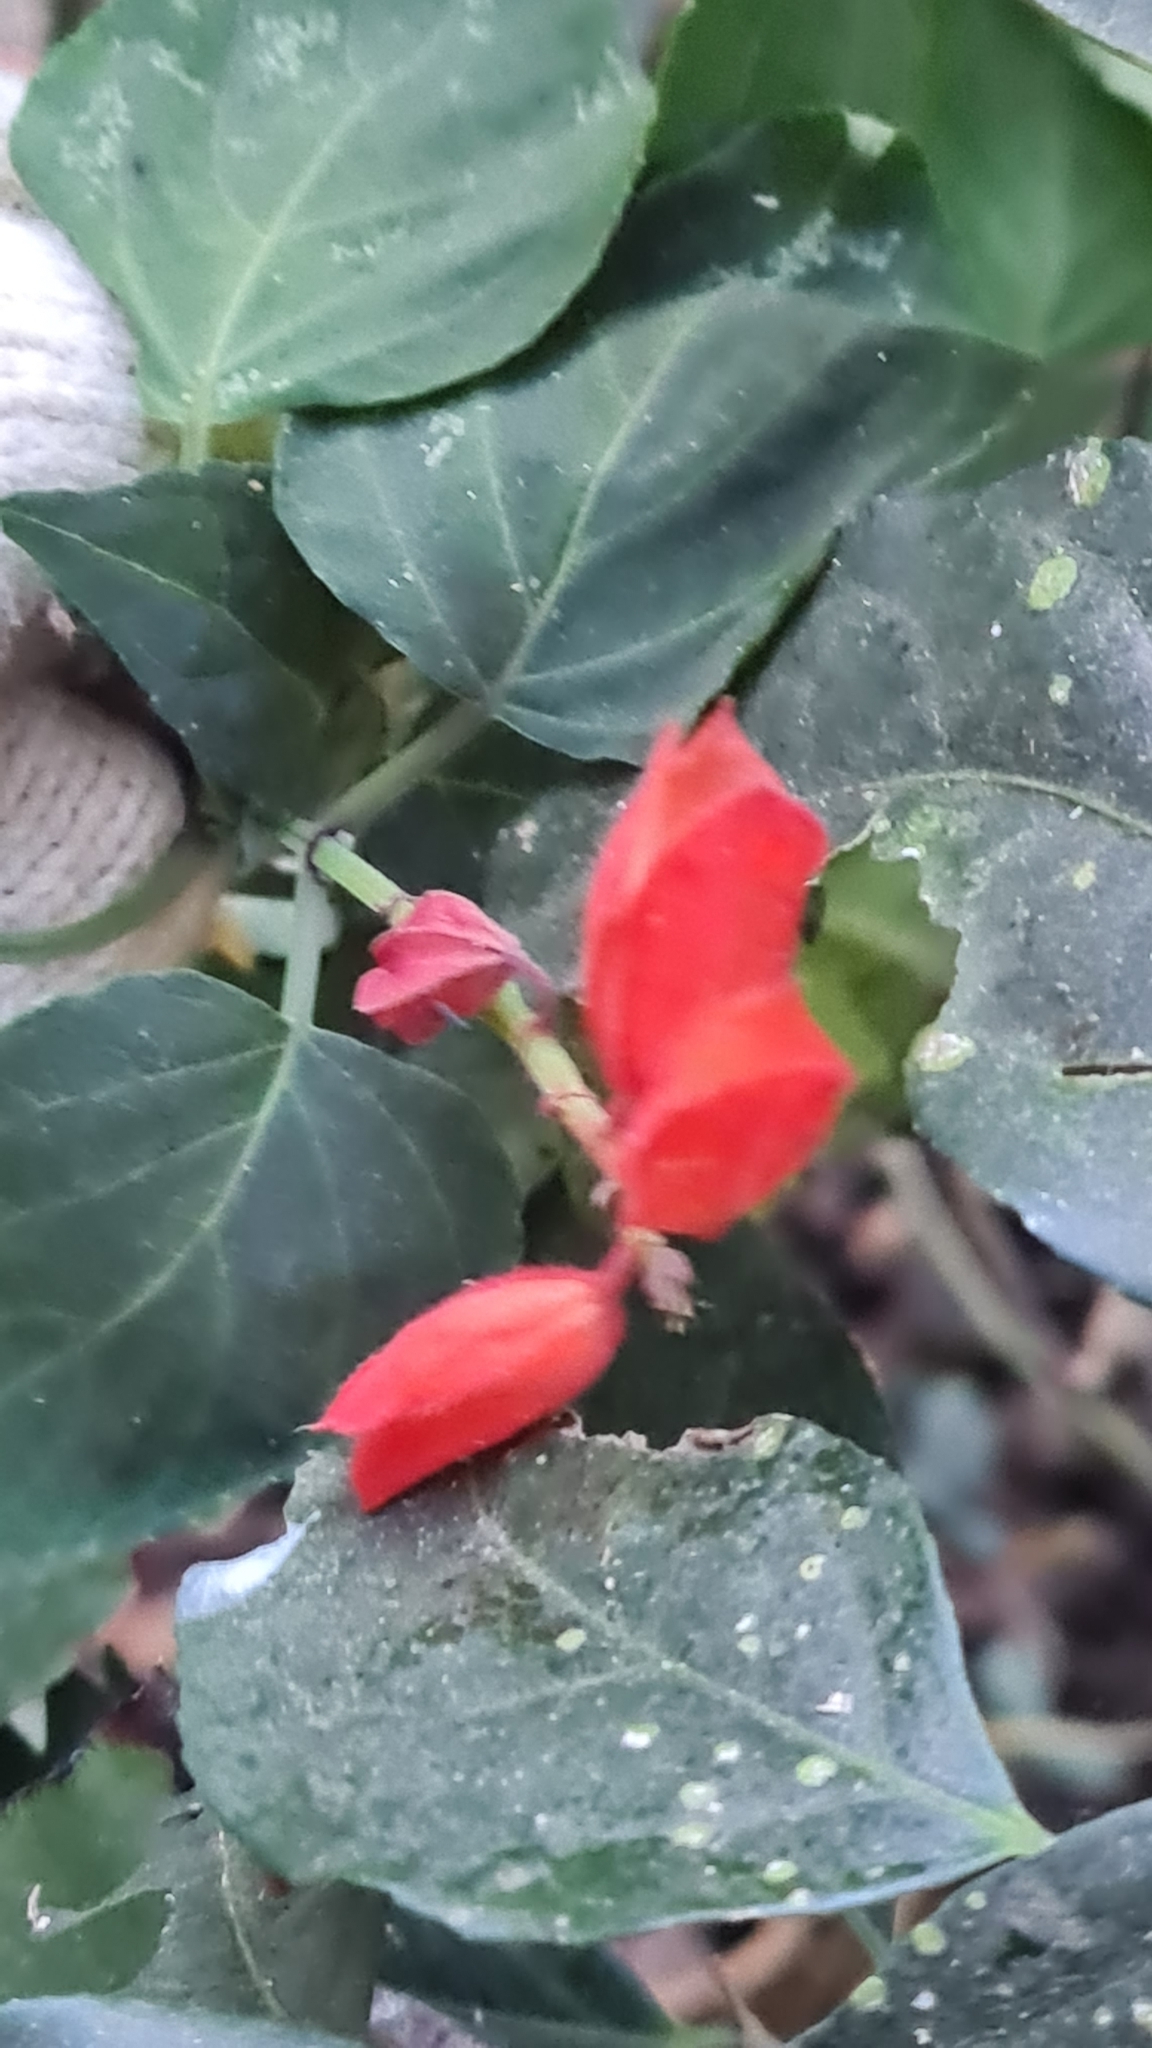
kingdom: Plantae
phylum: Tracheophyta
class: Magnoliopsida
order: Lamiales
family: Lamiaceae
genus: Salvia
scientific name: Salvia splendens
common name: Scarlet sage
